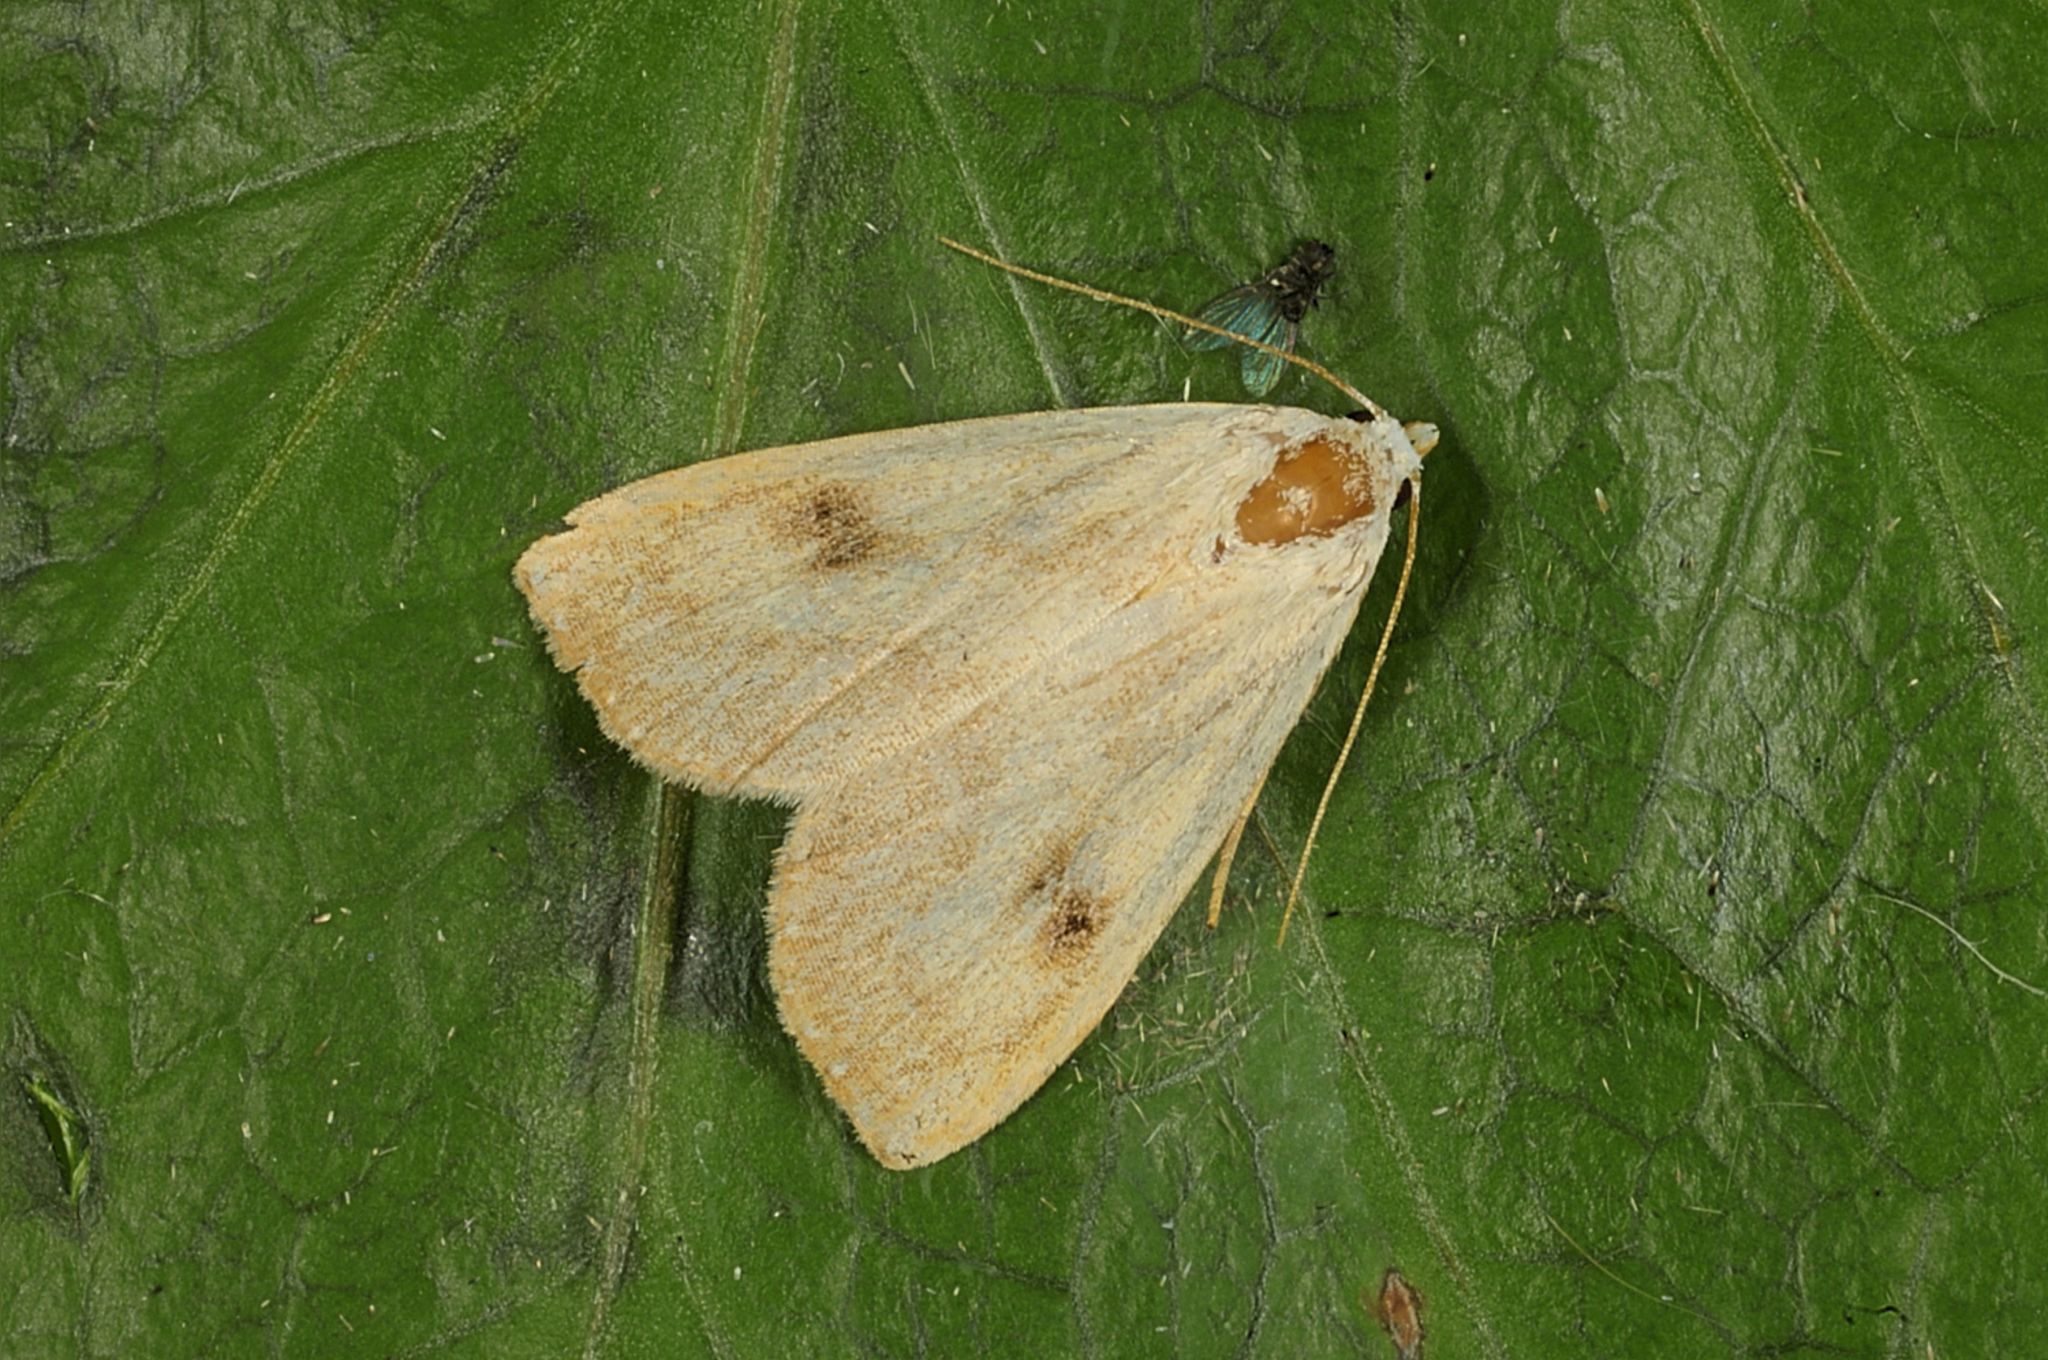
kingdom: Animalia
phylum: Arthropoda
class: Insecta
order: Lepidoptera
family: Erebidae
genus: Rivula
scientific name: Rivula sericealis
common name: Straw dot
